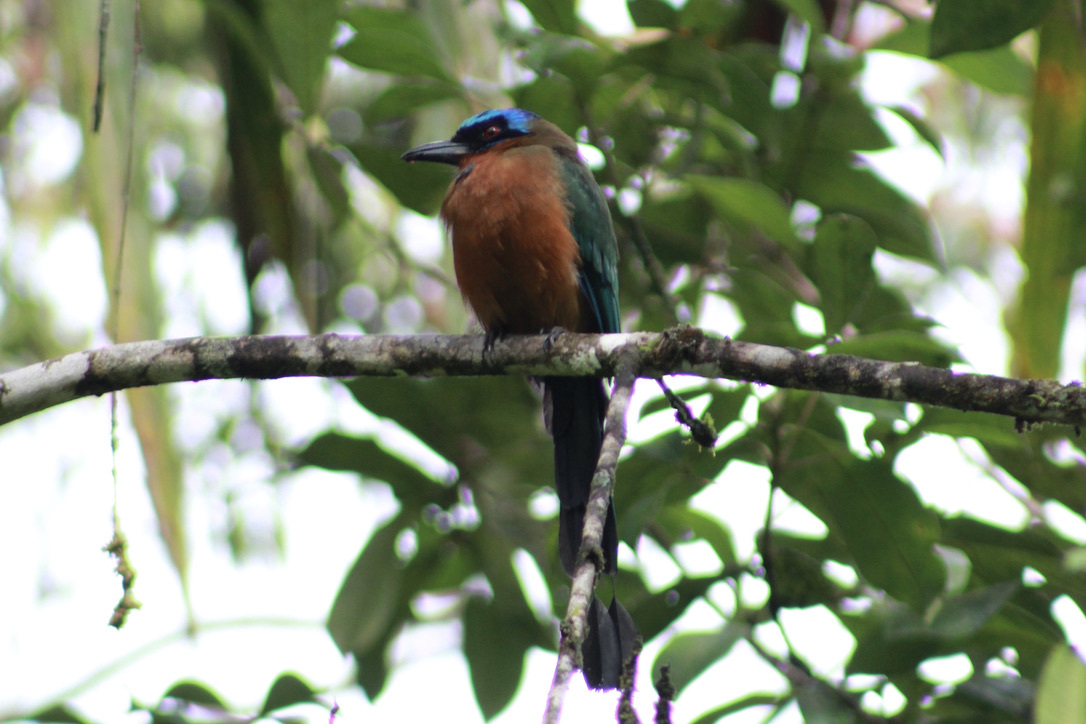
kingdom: Animalia
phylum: Chordata
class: Aves
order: Coraciiformes
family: Momotidae
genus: Momotus
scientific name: Momotus bahamensis
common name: Trinidad motmot
